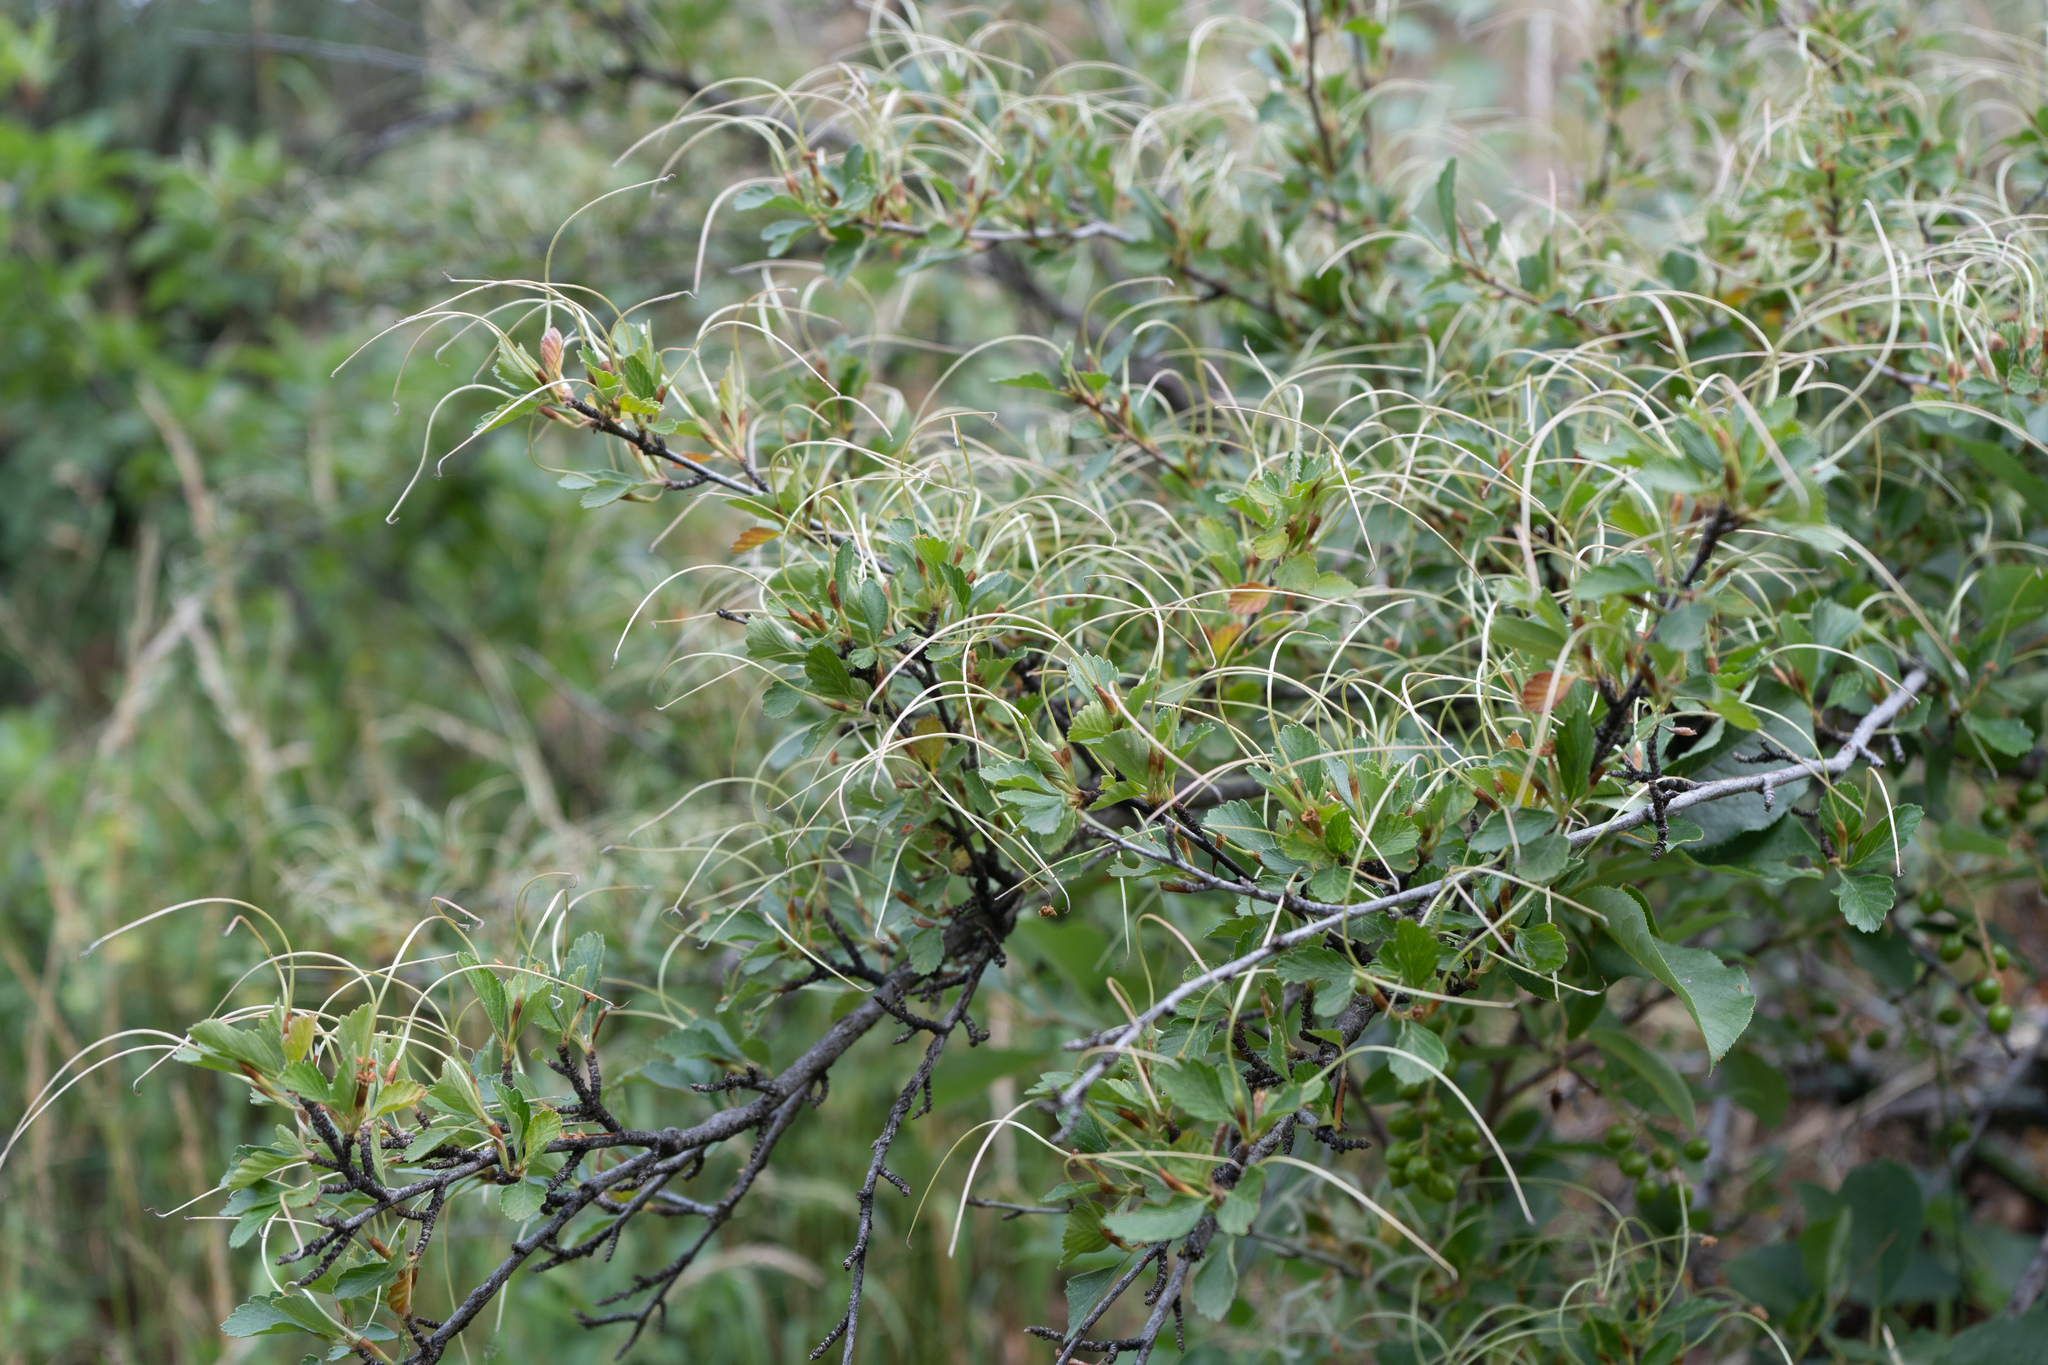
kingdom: Plantae
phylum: Tracheophyta
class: Magnoliopsida
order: Rosales
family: Rosaceae
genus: Cercocarpus
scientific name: Cercocarpus montanus
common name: Alder-leaf cercocarpus
